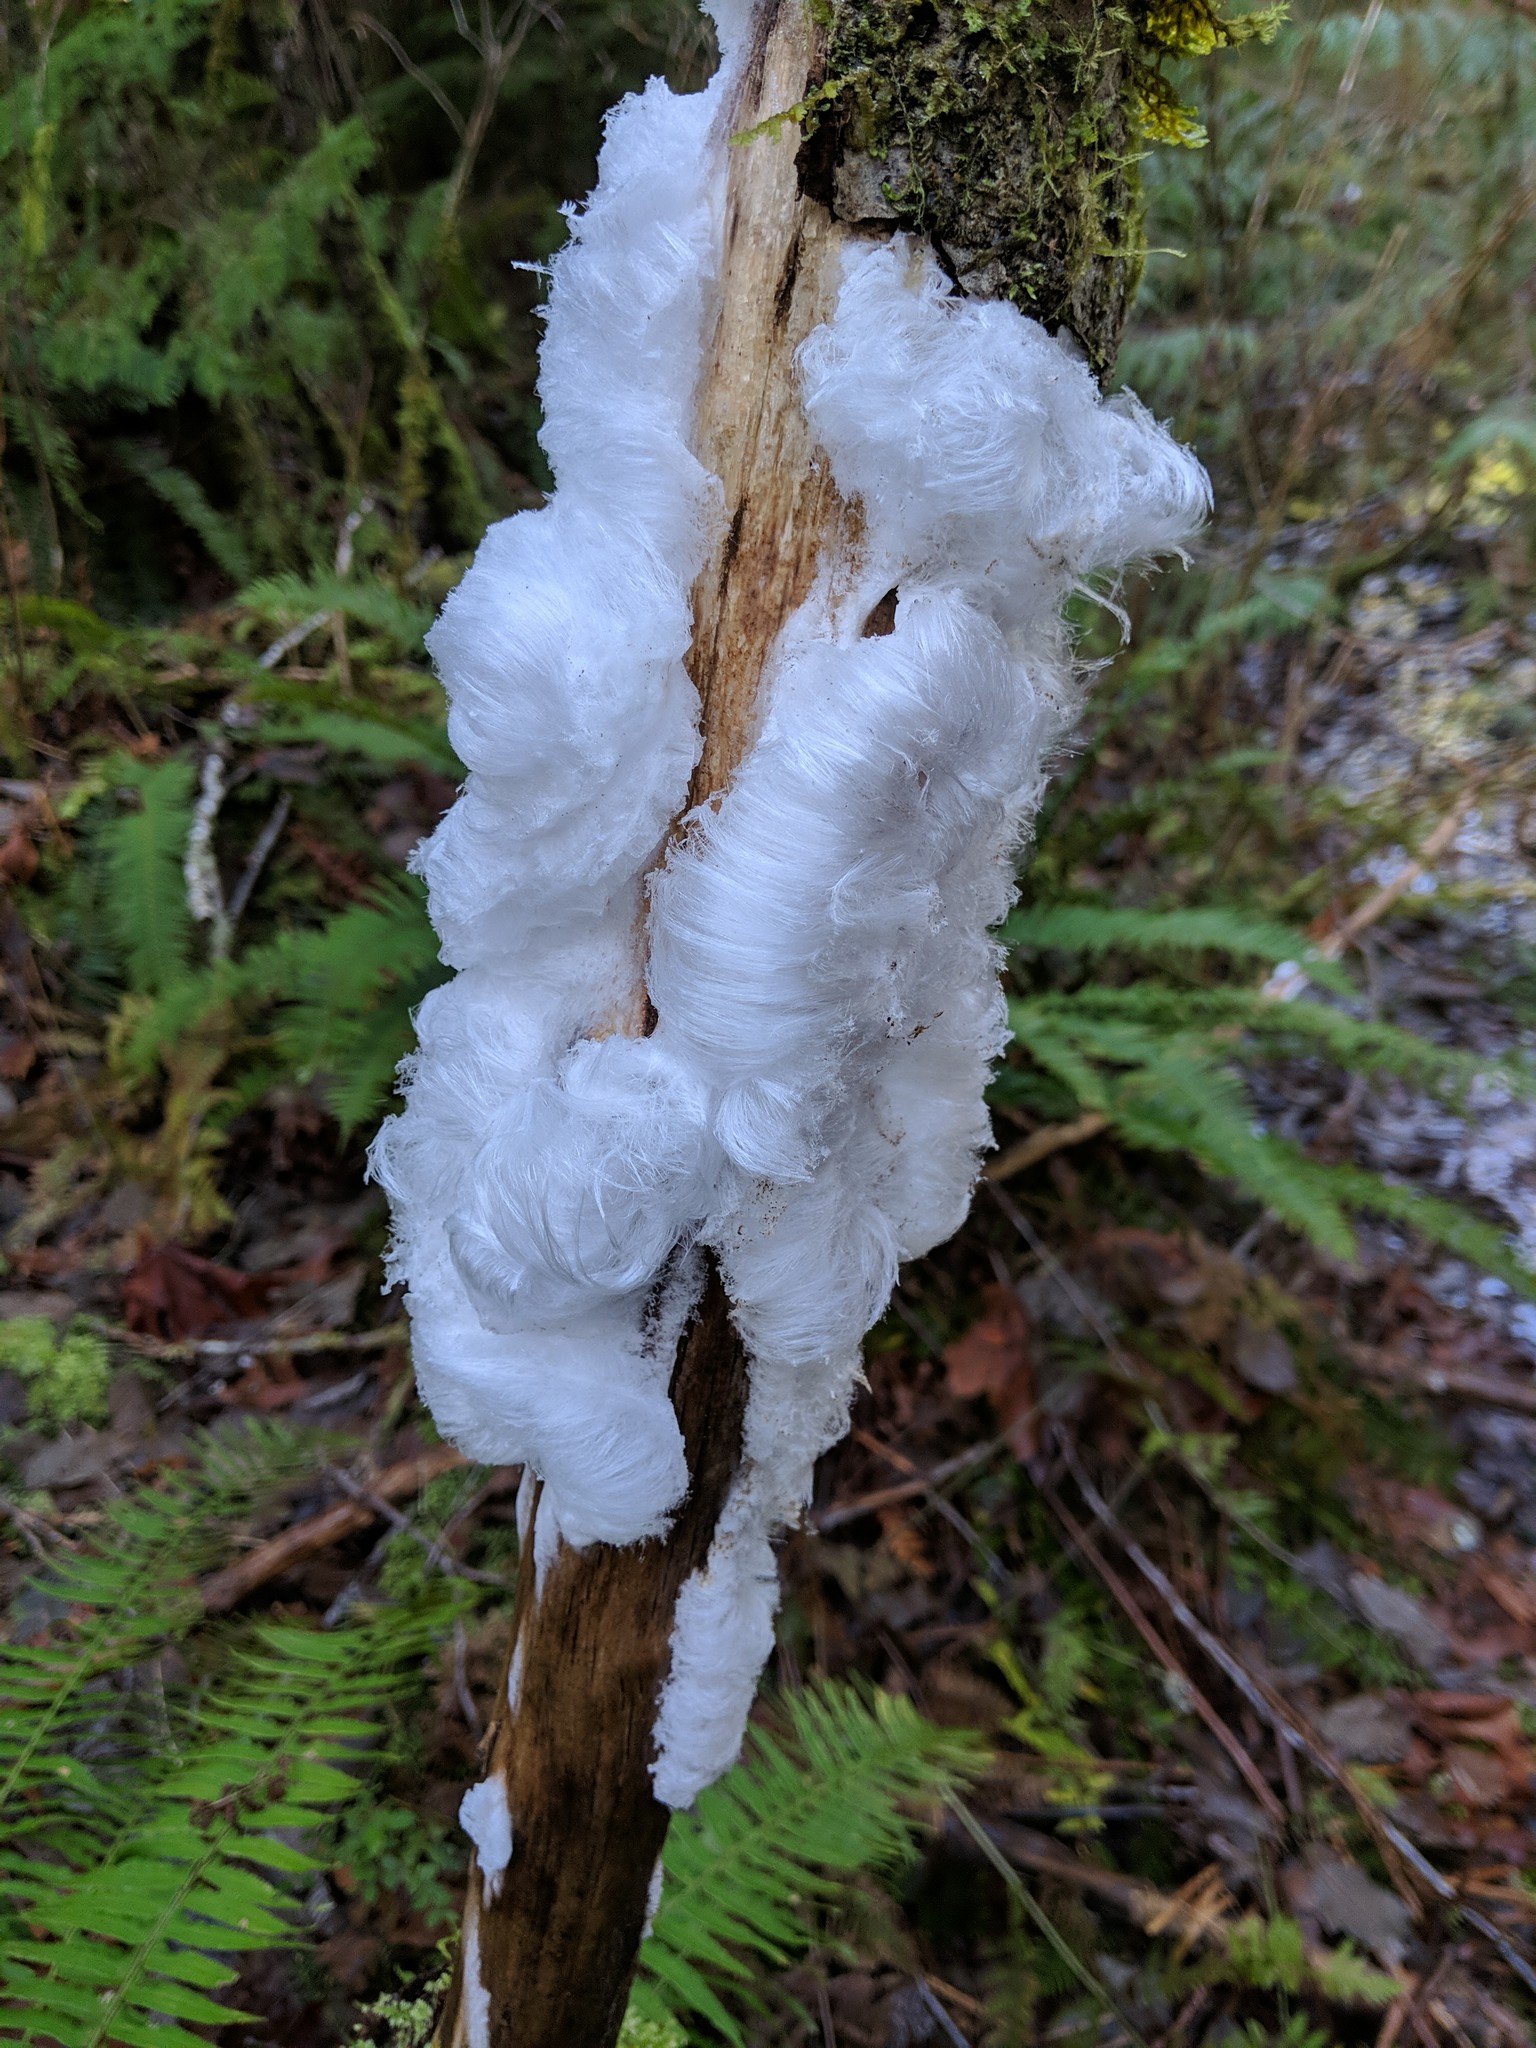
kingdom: Fungi
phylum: Basidiomycota
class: Agaricomycetes
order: Auriculariales
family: Auriculariaceae
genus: Exidiopsis
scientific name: Exidiopsis effusa
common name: Hair ice crust
